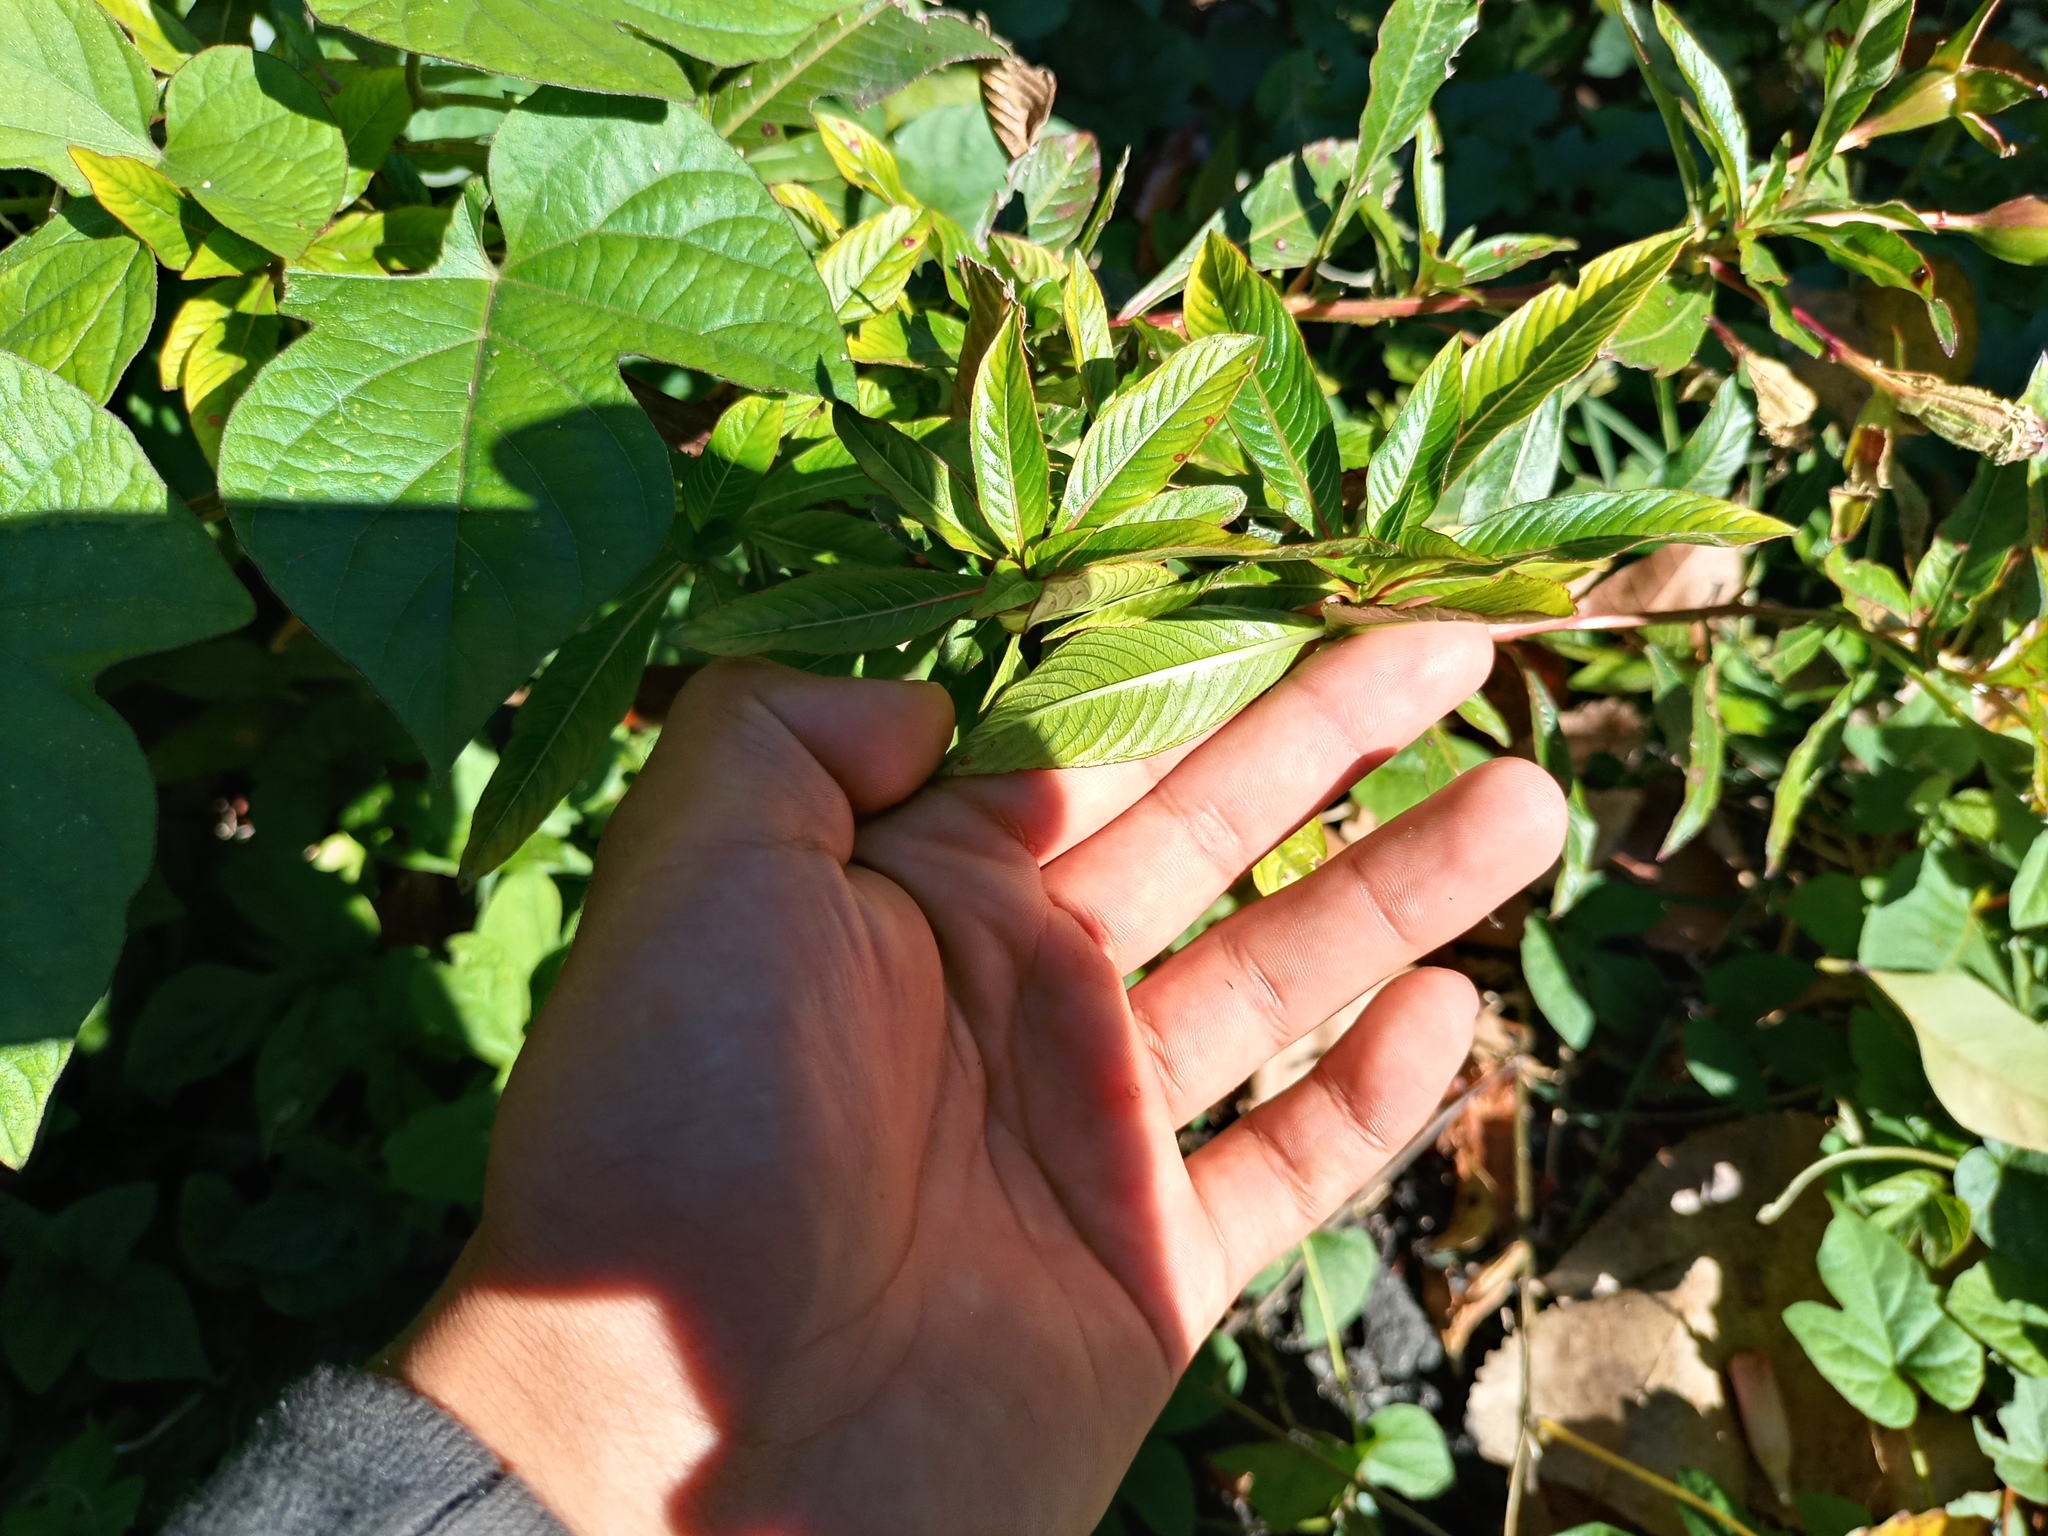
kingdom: Plantae
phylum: Tracheophyta
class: Magnoliopsida
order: Myrtales
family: Onagraceae
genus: Ludwigia
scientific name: Ludwigia elegans
